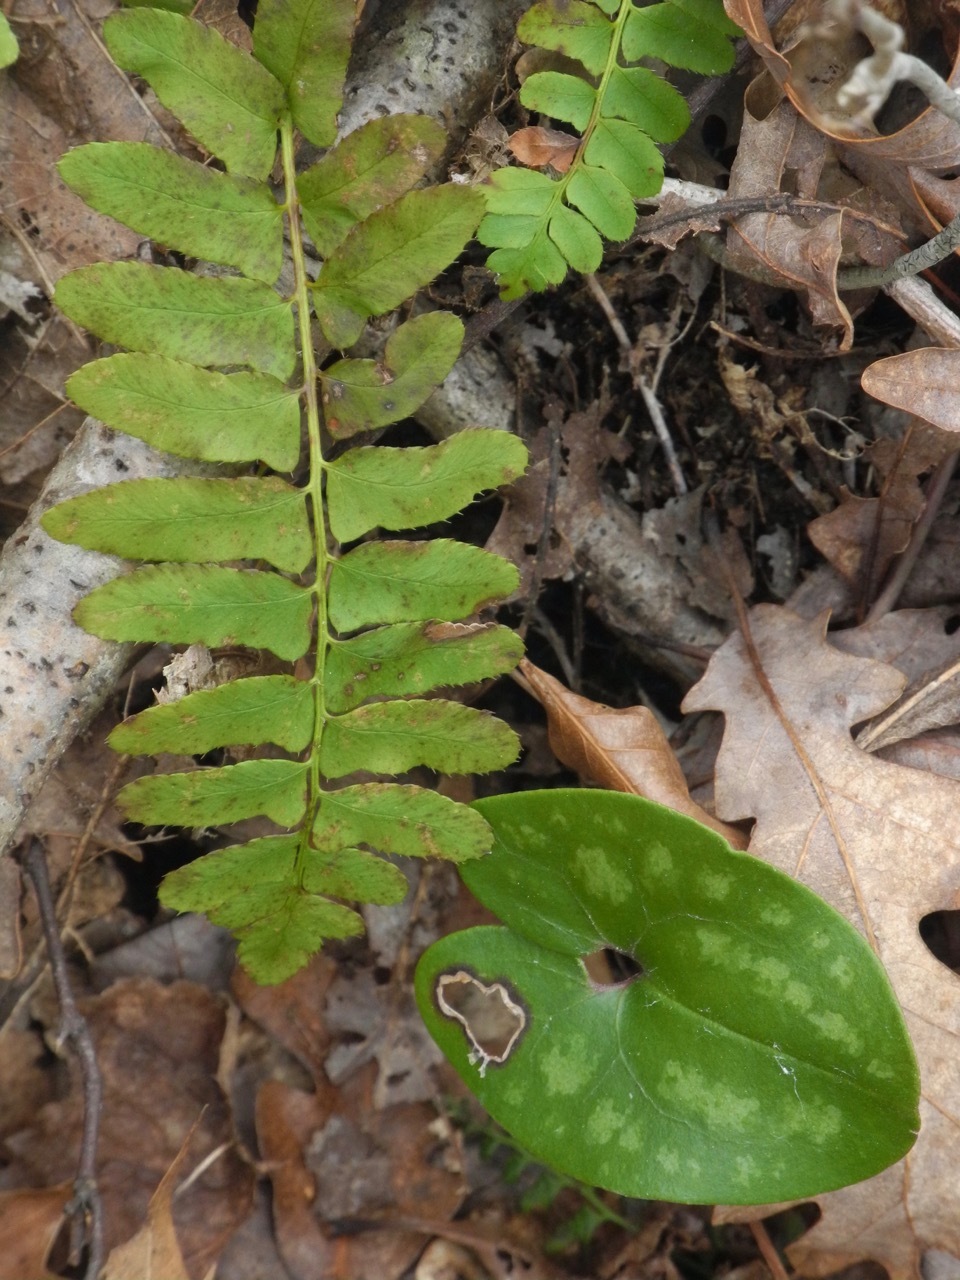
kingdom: Plantae
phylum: Tracheophyta
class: Polypodiopsida
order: Polypodiales
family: Dryopteridaceae
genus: Polystichum
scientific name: Polystichum acrostichoides
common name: Christmas fern
